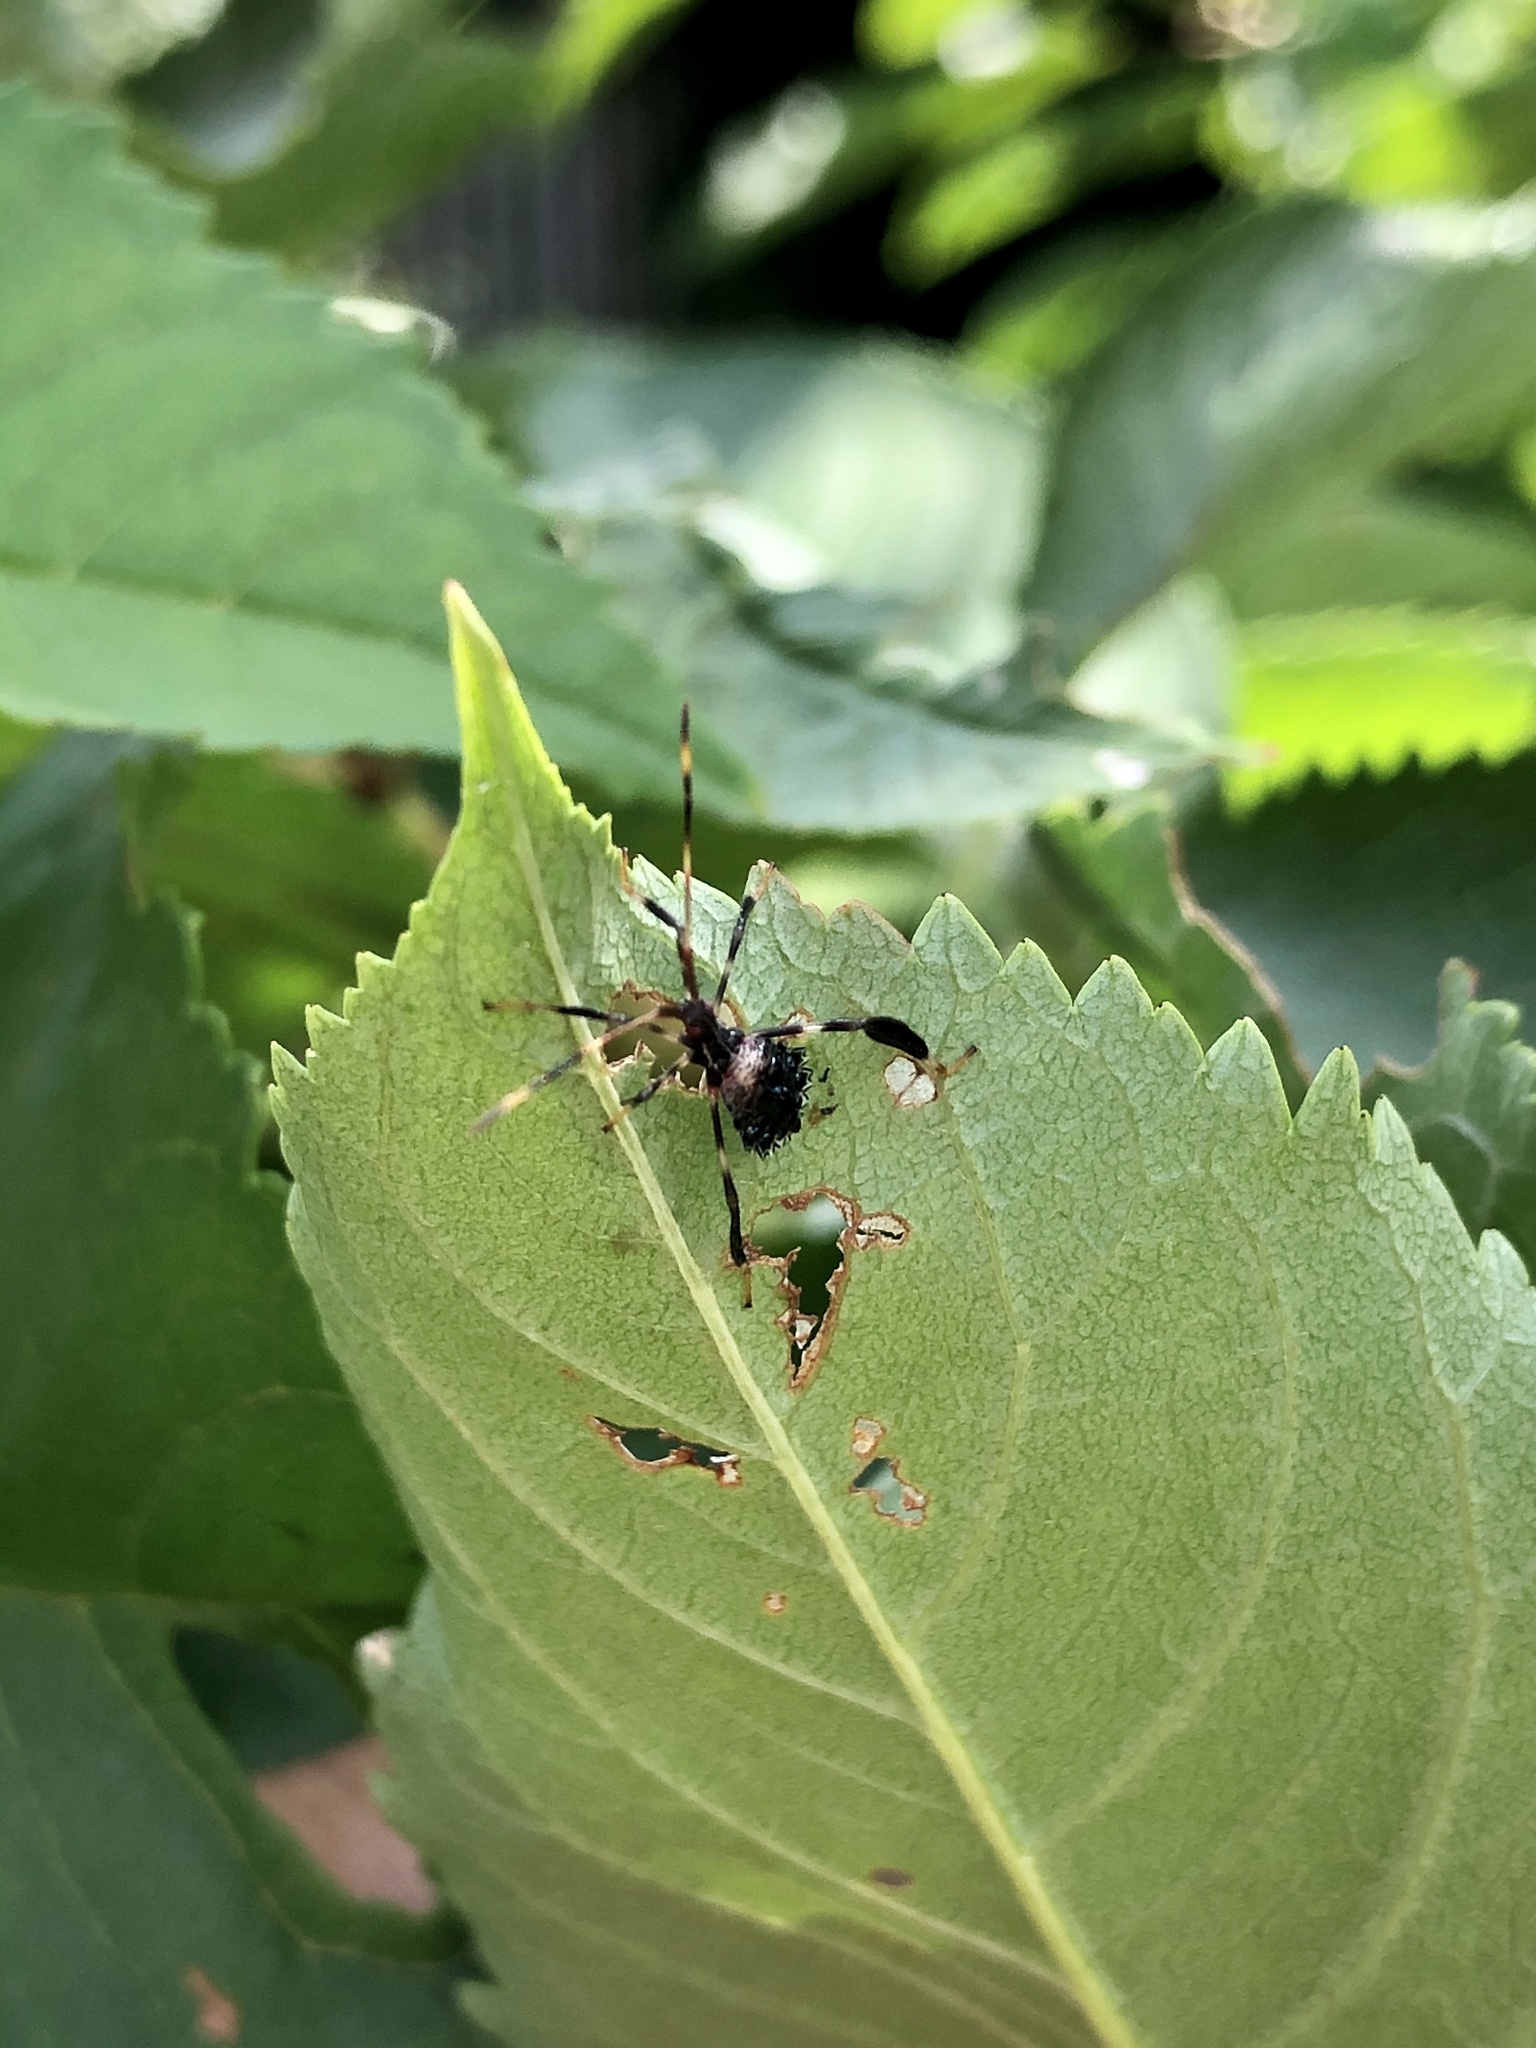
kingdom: Animalia
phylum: Arthropoda
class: Insecta
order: Hemiptera
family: Coreidae
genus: Acanthocephala
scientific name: Acanthocephala terminalis
